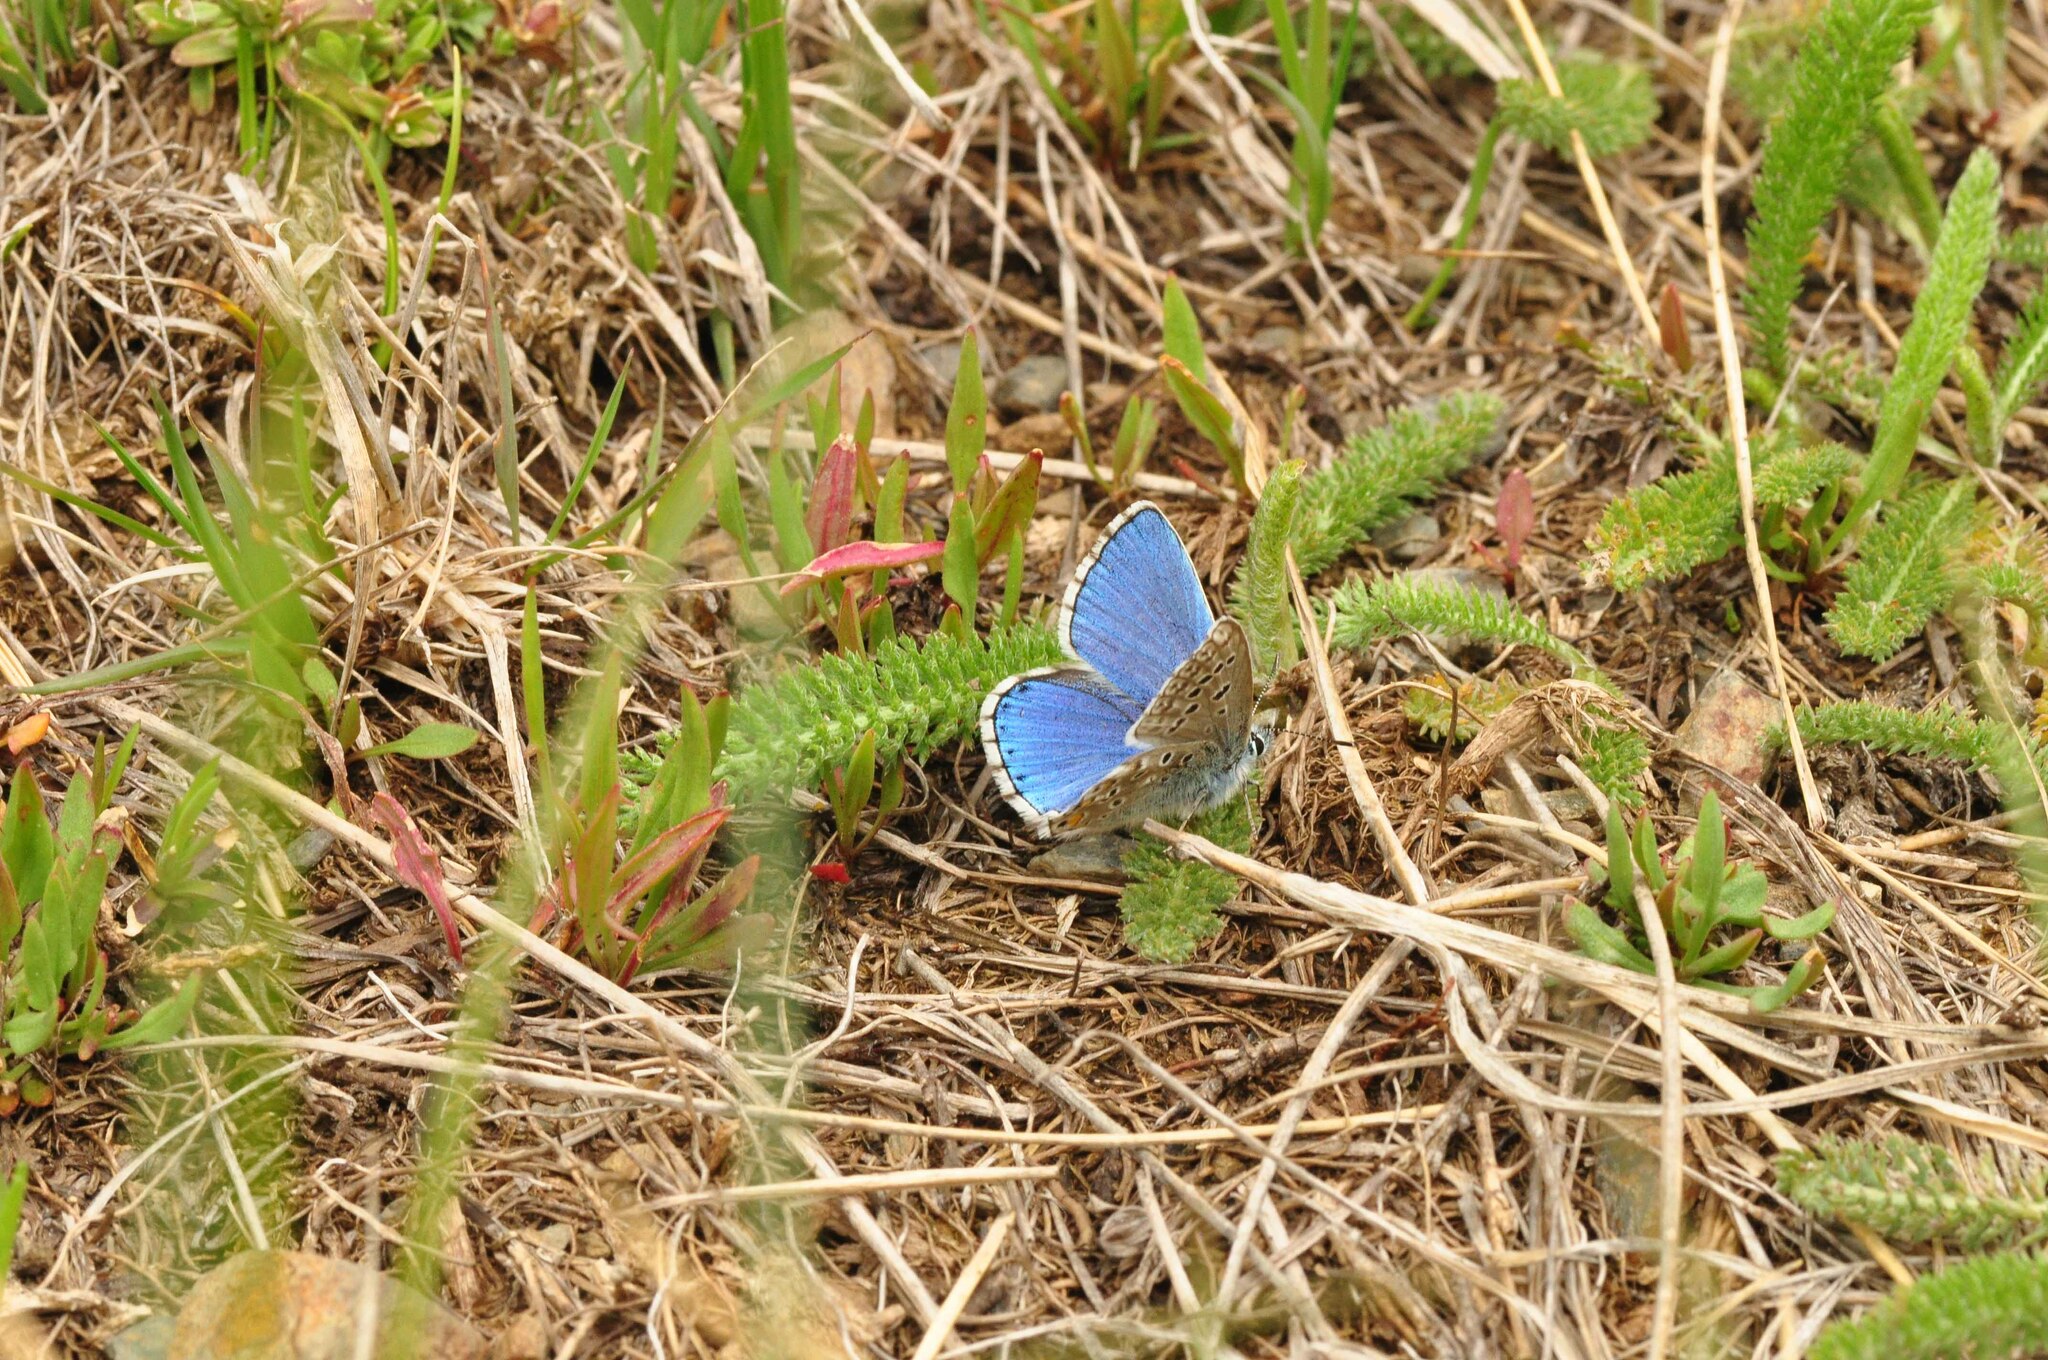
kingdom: Animalia
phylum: Arthropoda
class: Insecta
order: Lepidoptera
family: Lycaenidae
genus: Lysandra
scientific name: Lysandra bellargus
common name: Adonis blue
